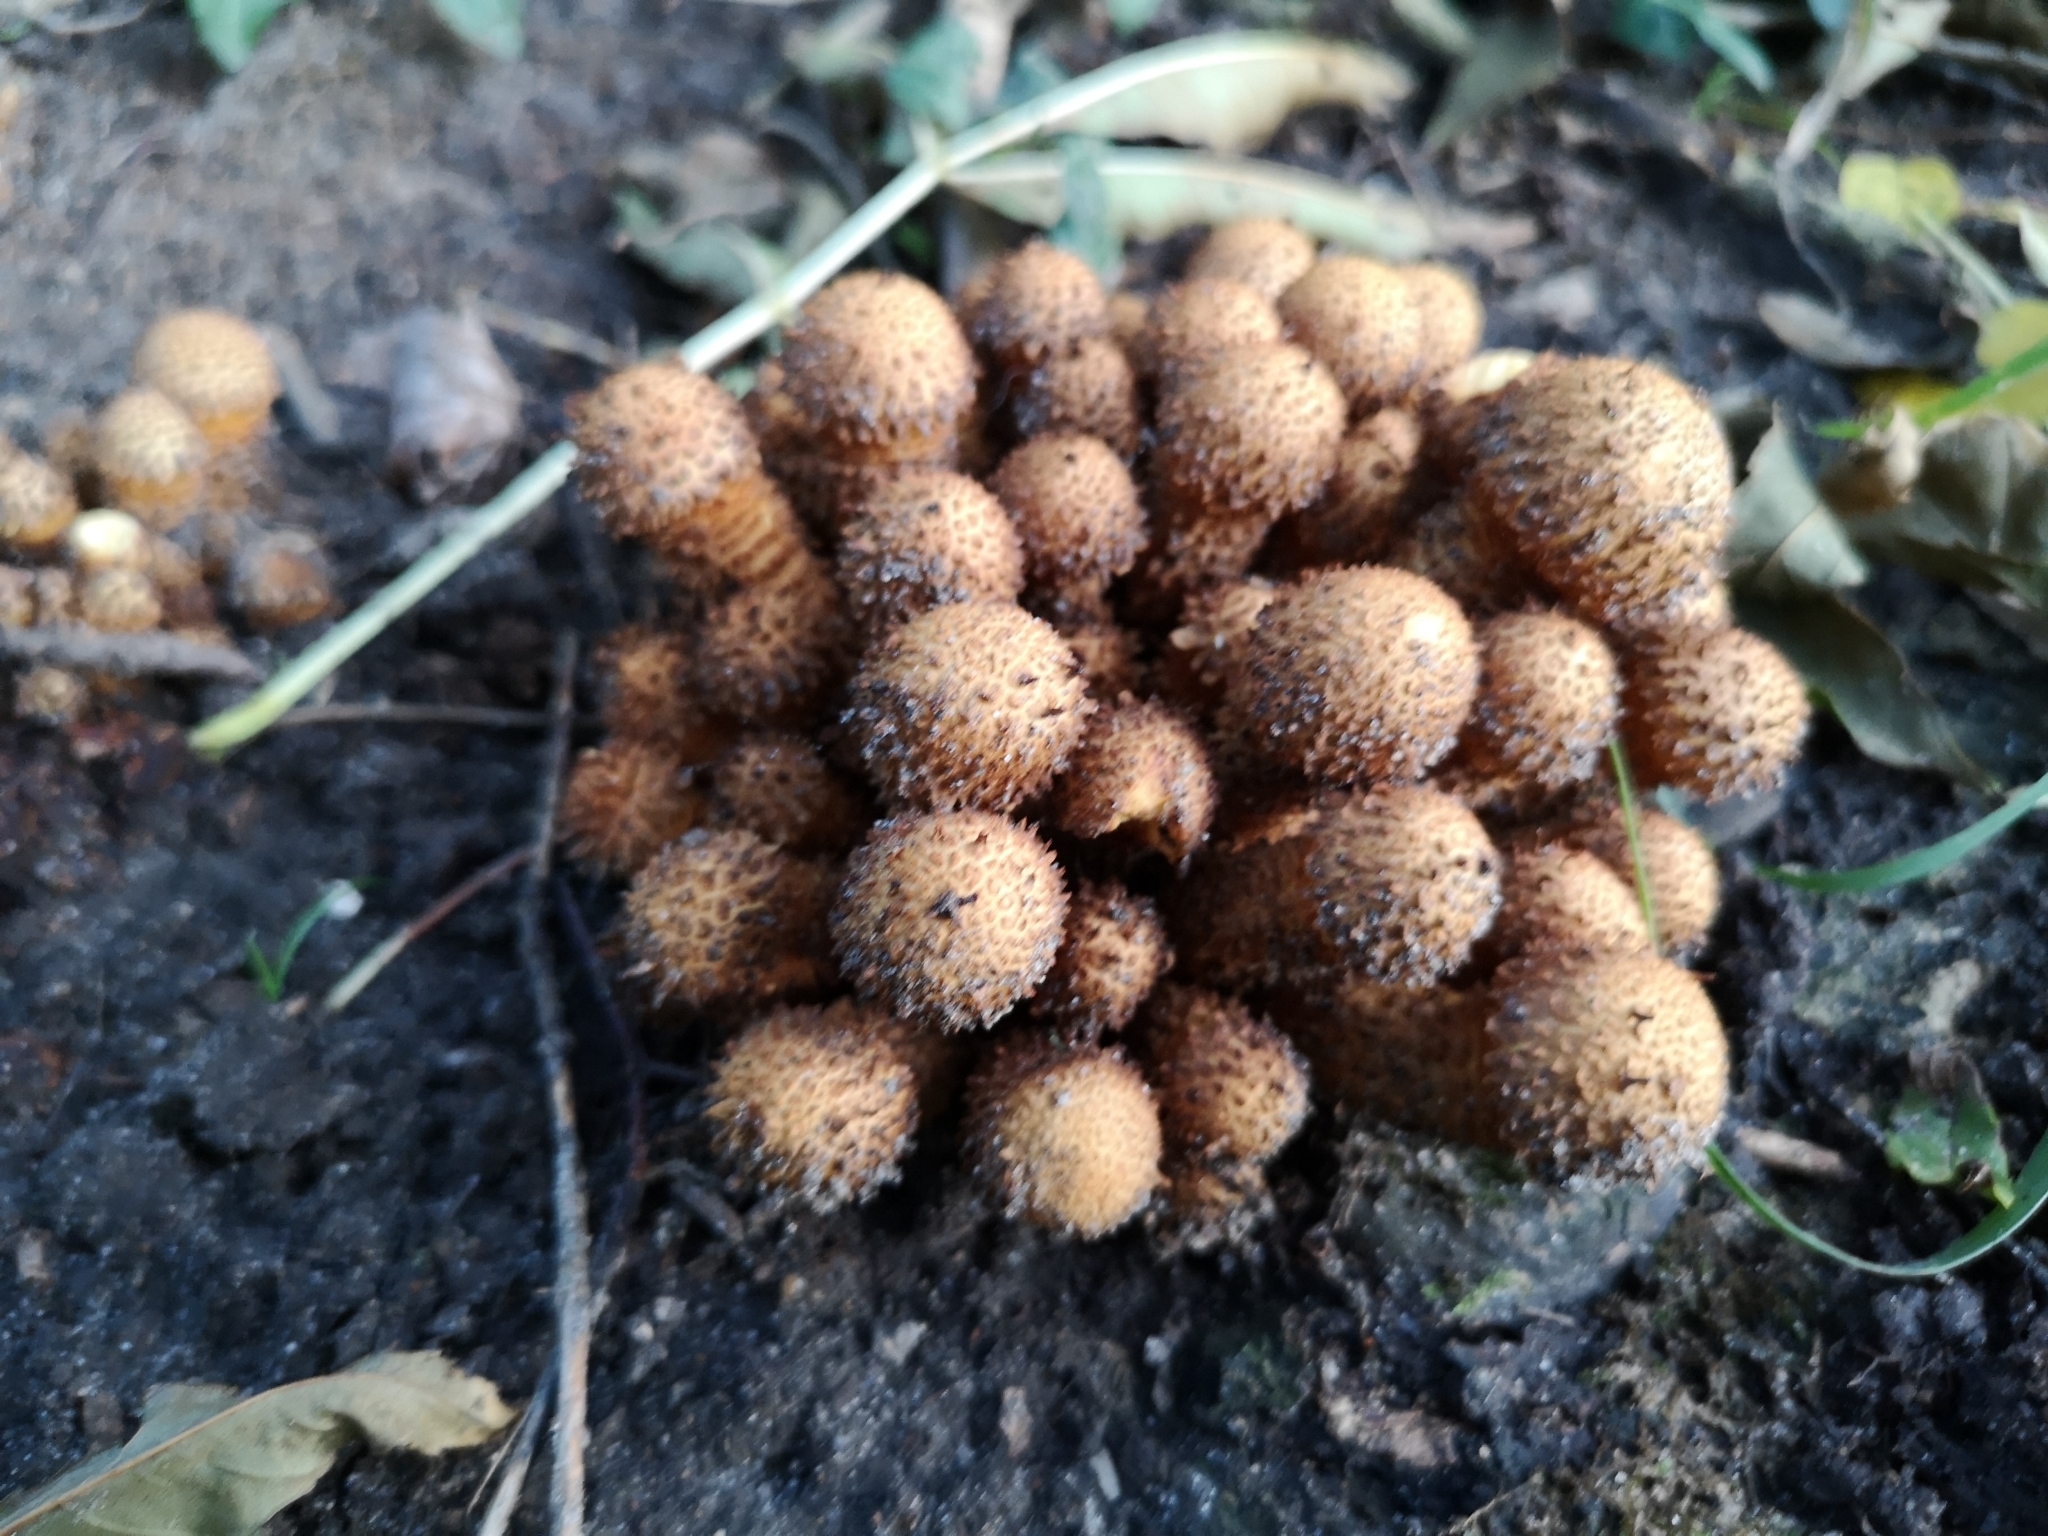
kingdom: Fungi
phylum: Basidiomycota
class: Agaricomycetes
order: Agaricales
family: Strophariaceae
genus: Pholiota
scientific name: Pholiota squarrosa
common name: Shaggy pholiota
